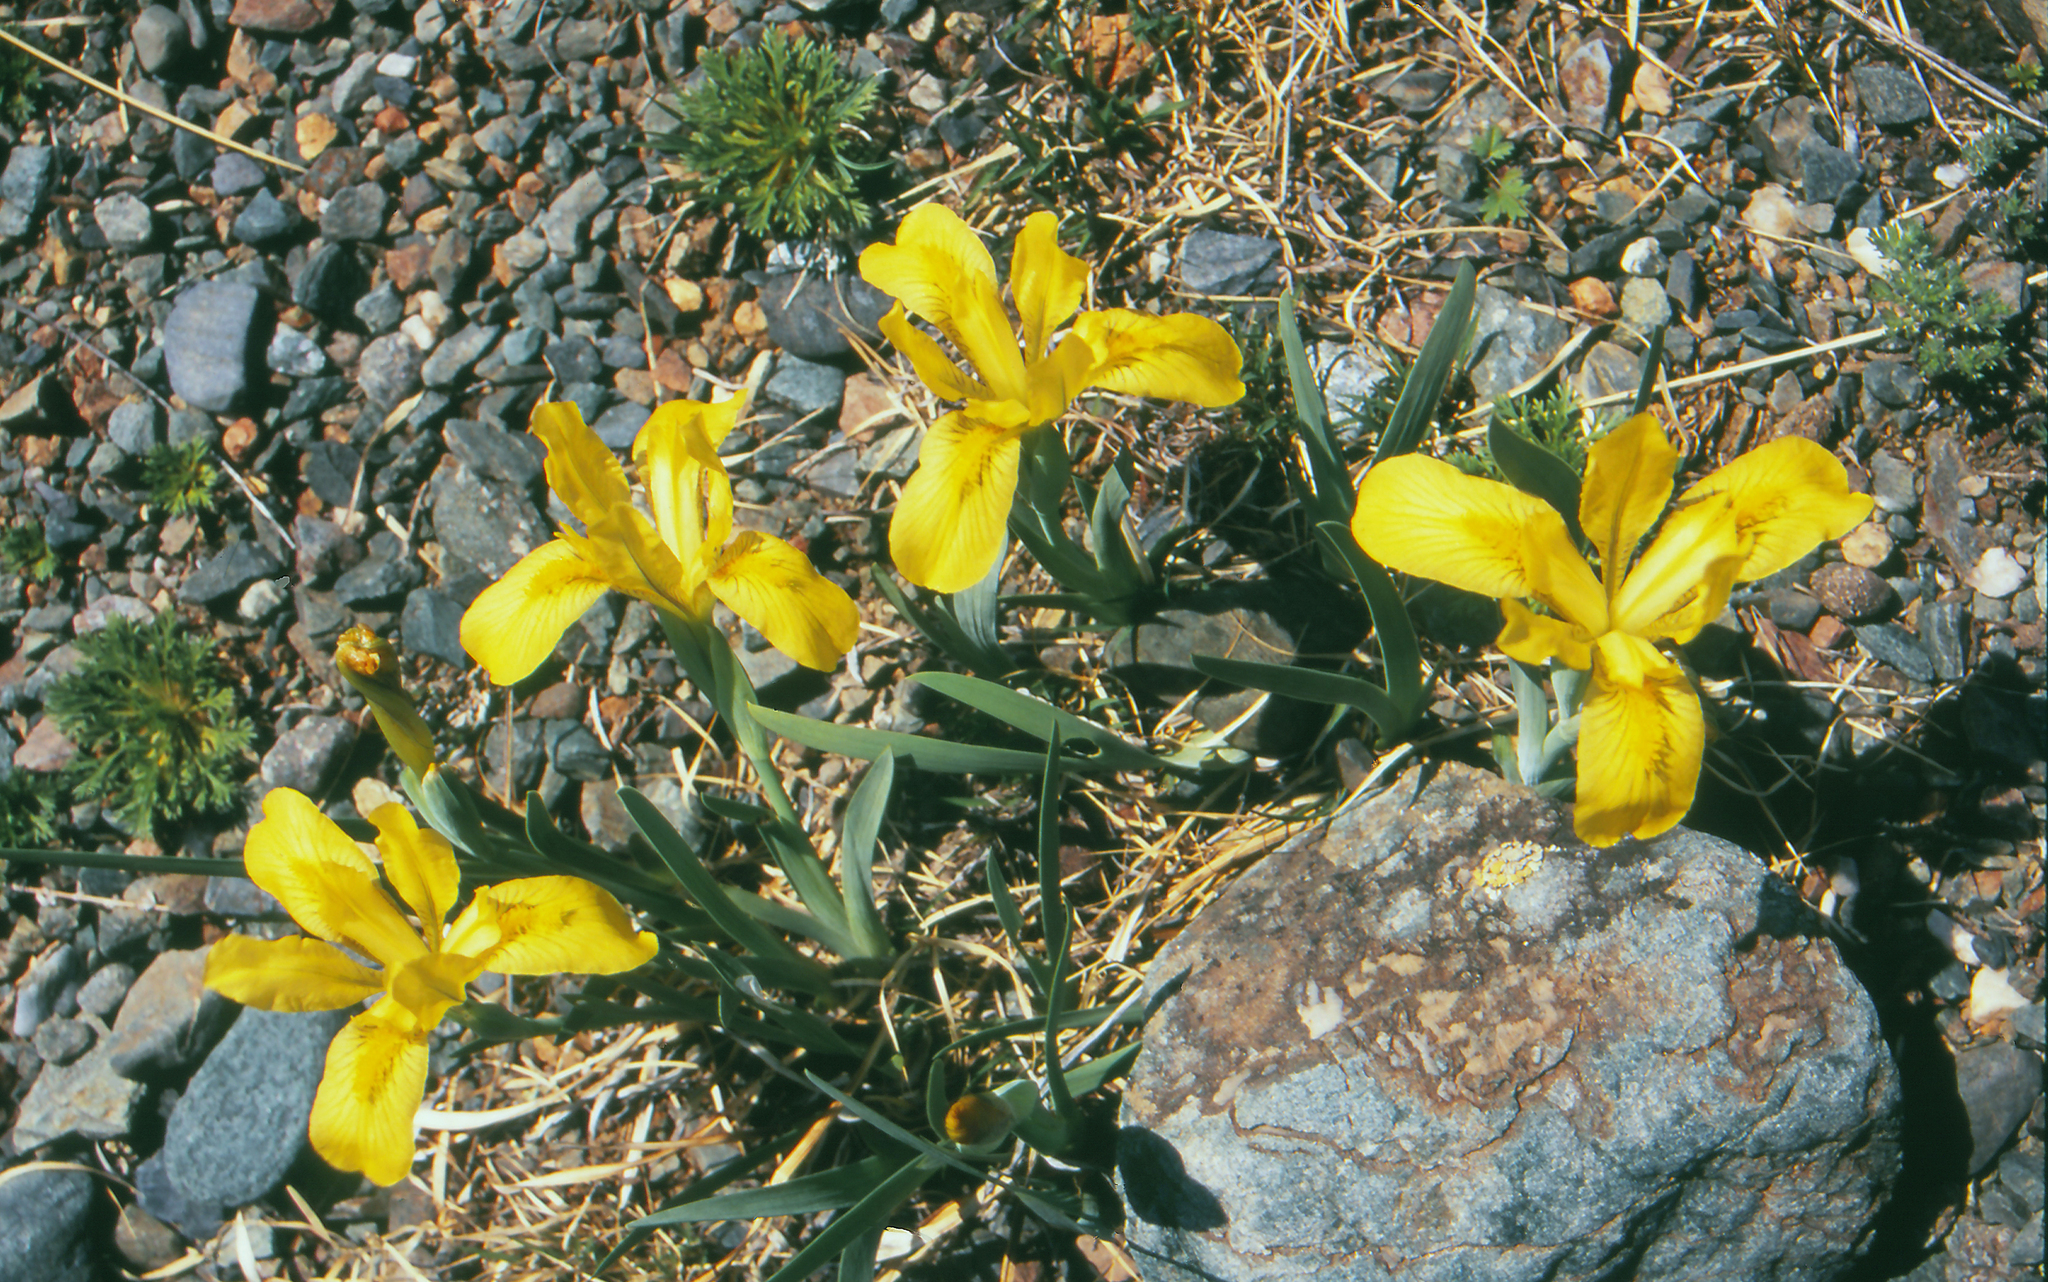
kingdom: Plantae
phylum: Tracheophyta
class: Liliopsida
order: Asparagales
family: Iridaceae
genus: Iris
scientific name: Iris humilis
